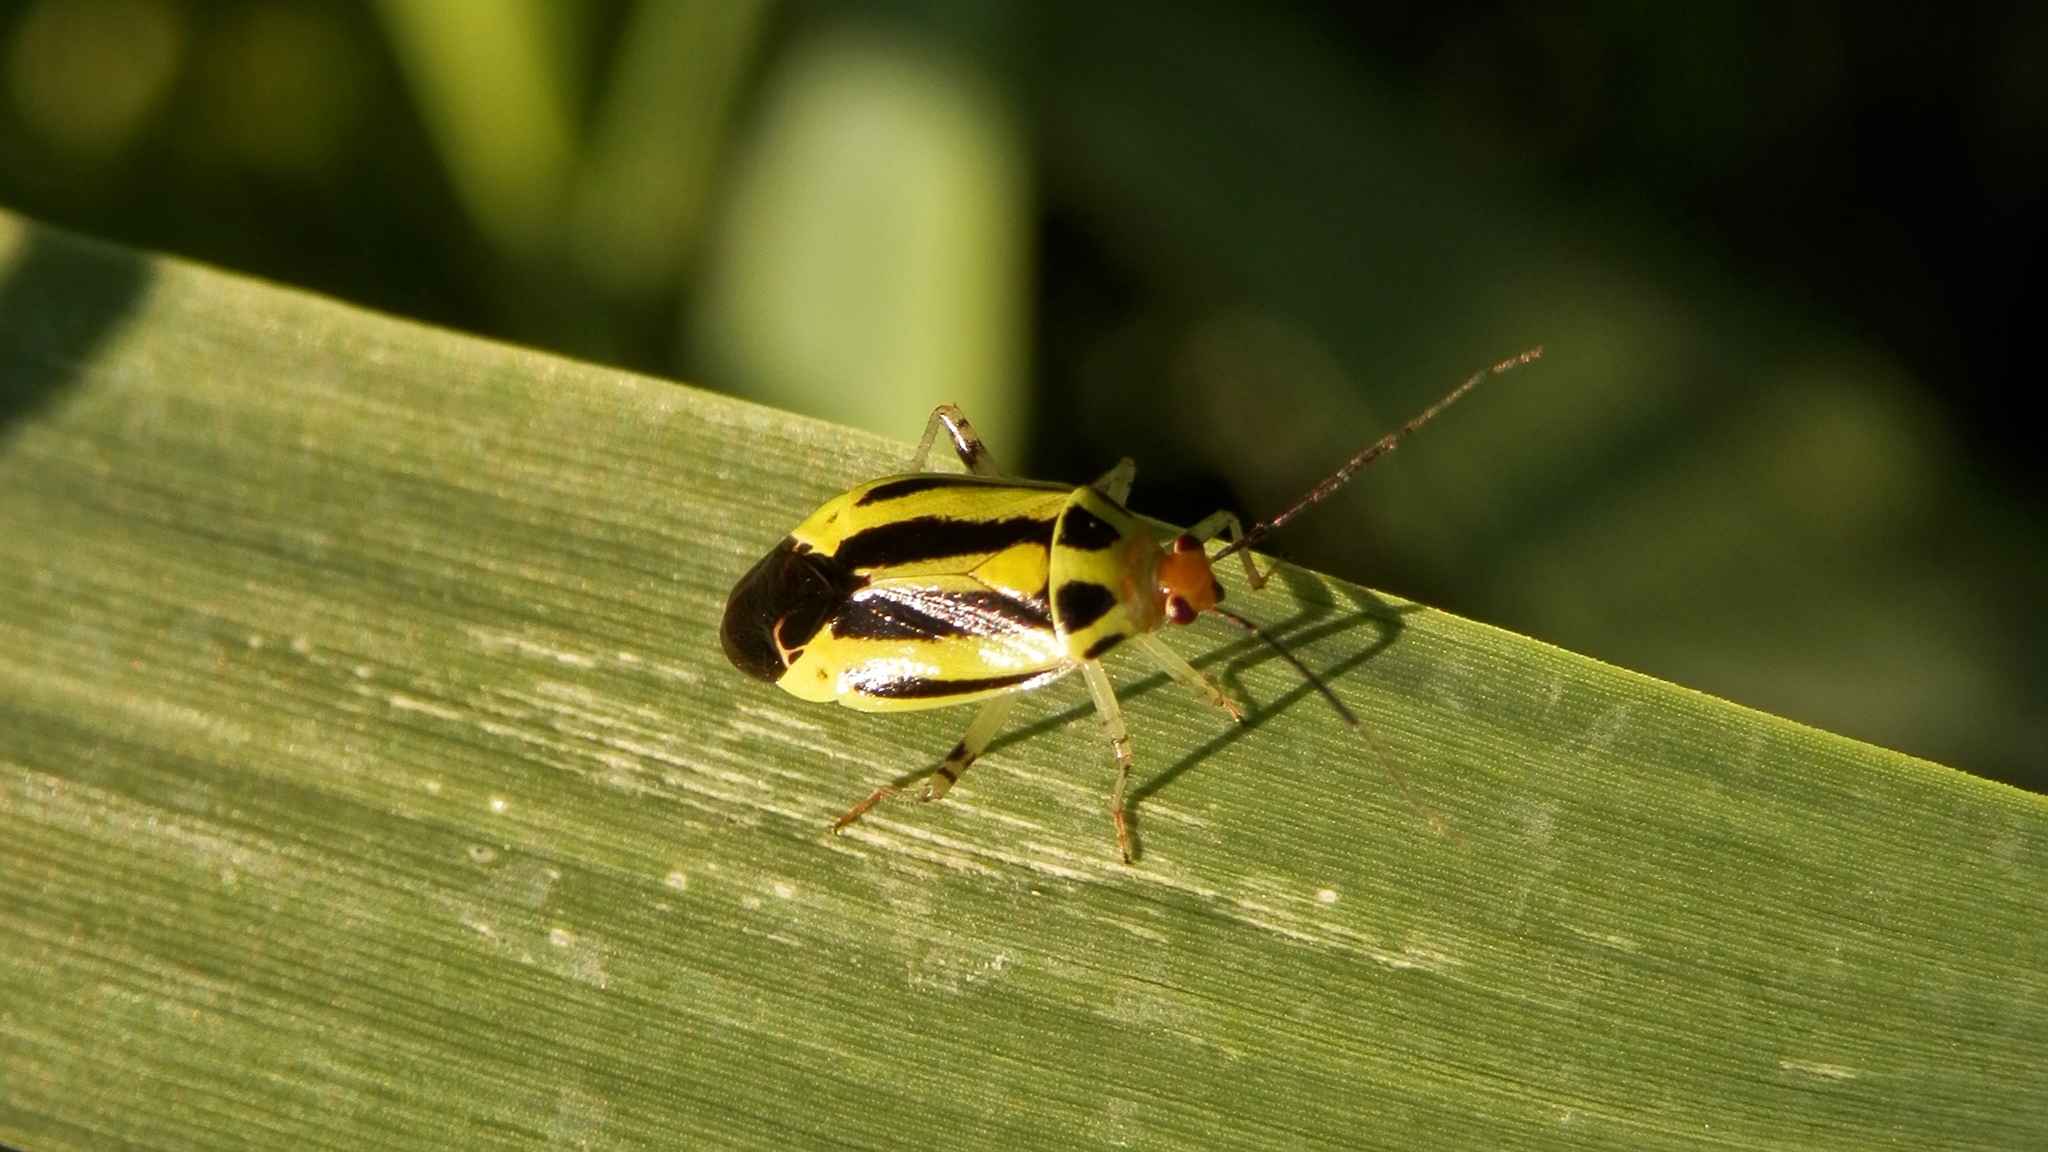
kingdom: Animalia
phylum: Arthropoda
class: Insecta
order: Hemiptera
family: Miridae
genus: Poecilocapsus
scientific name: Poecilocapsus lineatus
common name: Four-lined plant bug
